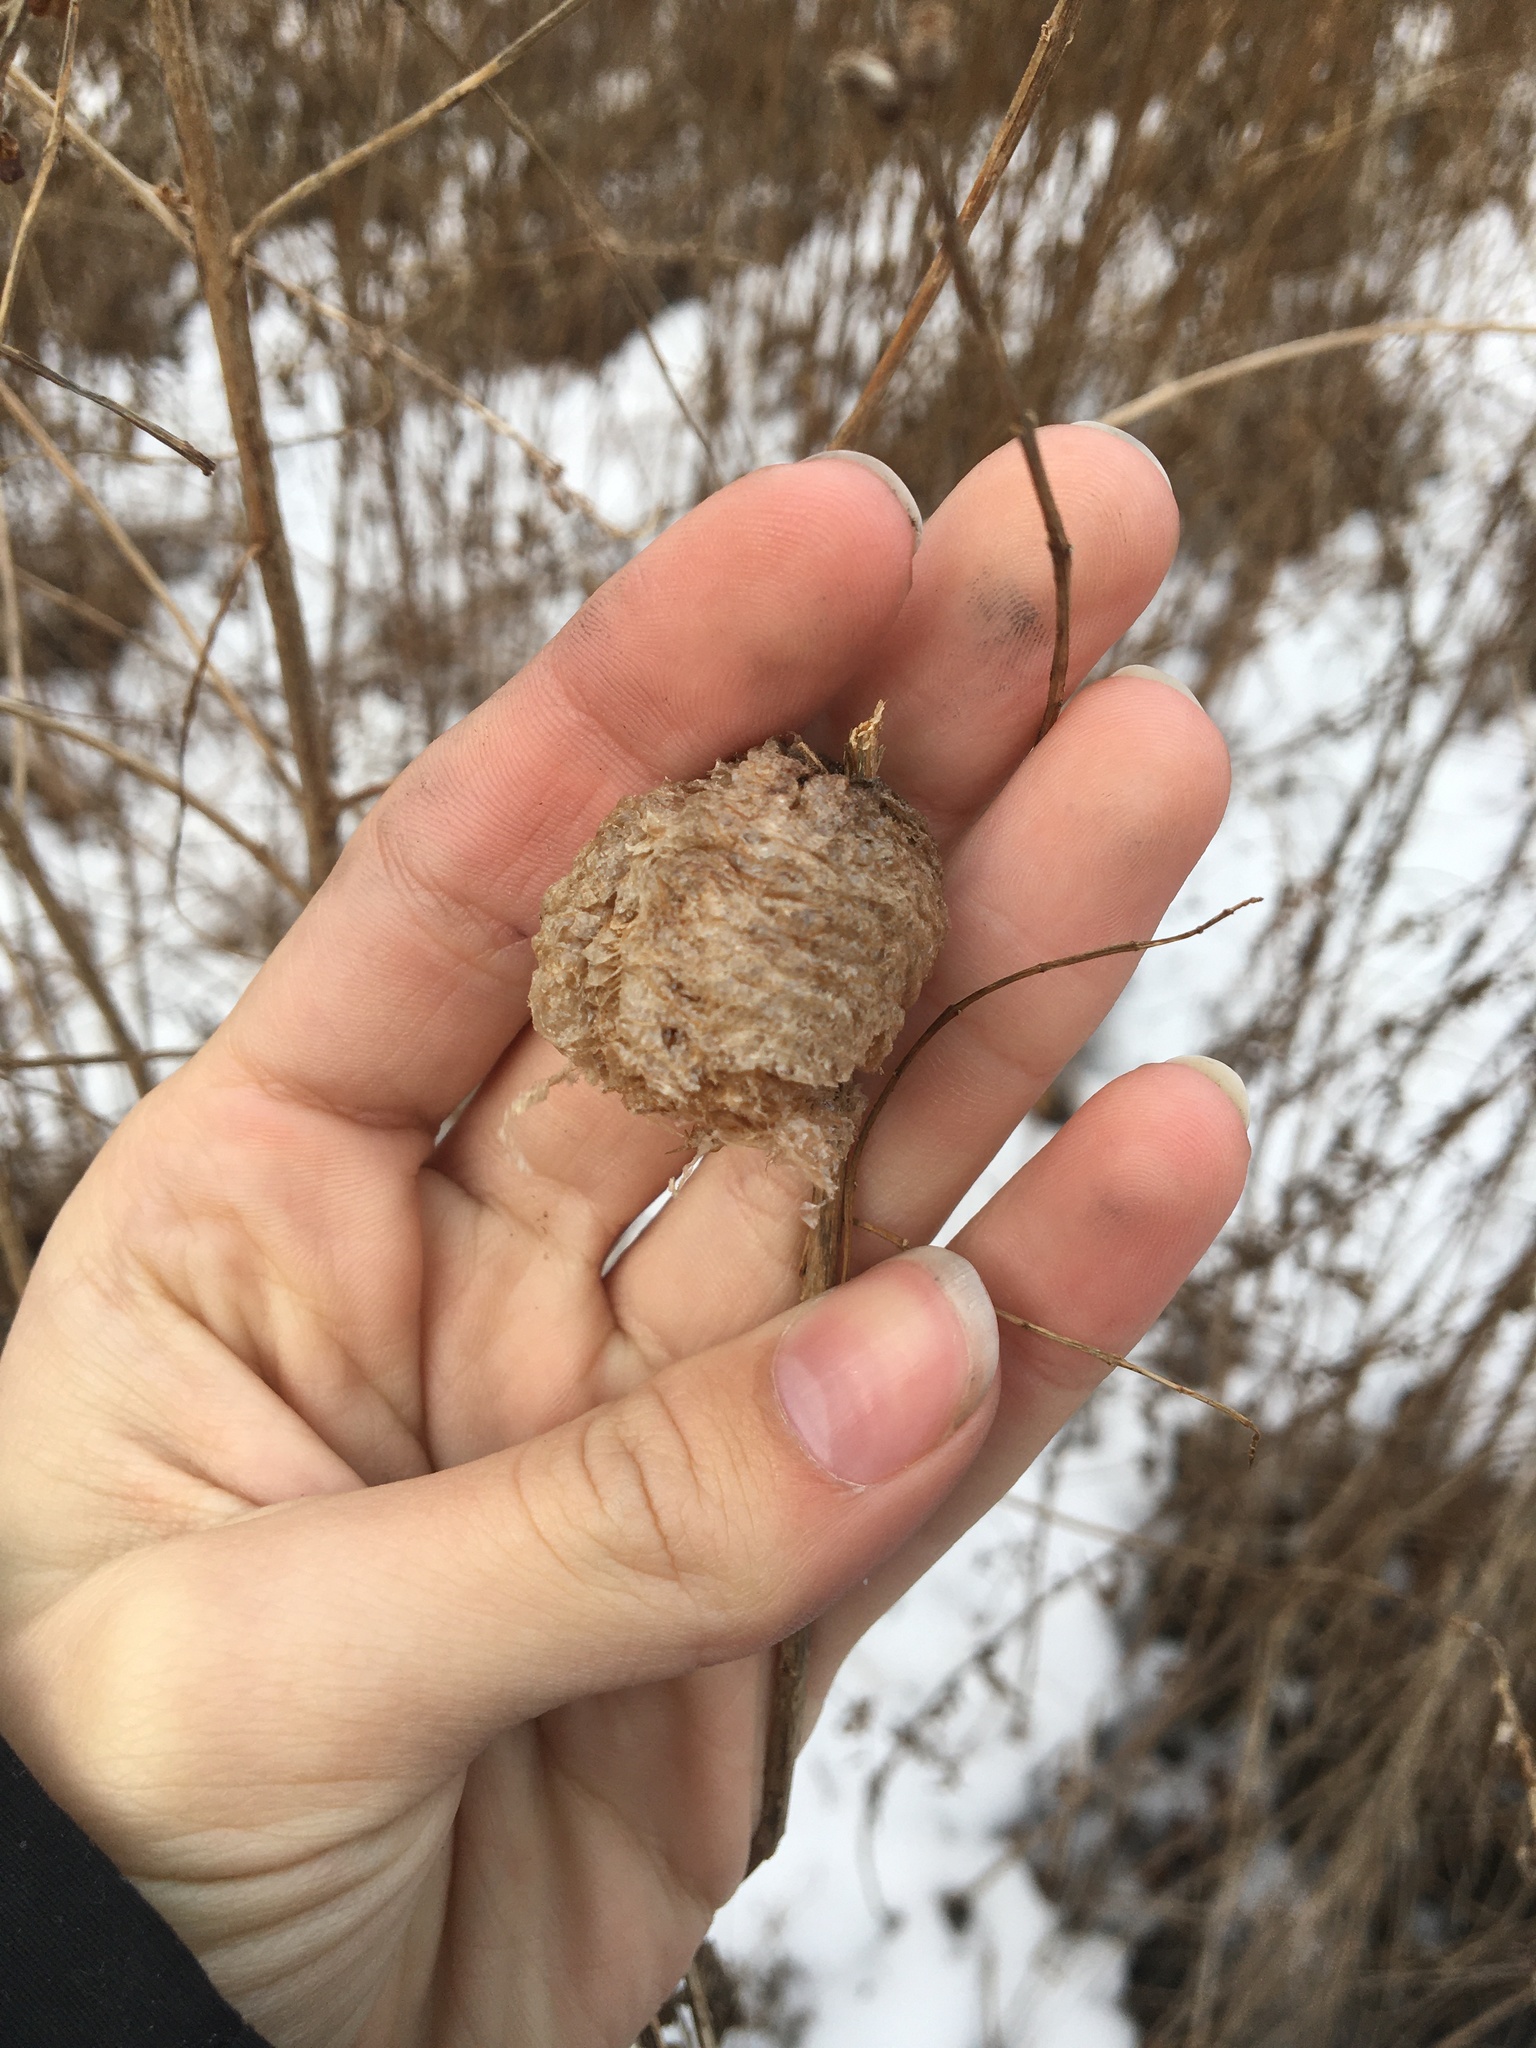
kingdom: Animalia
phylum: Arthropoda
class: Insecta
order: Mantodea
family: Mantidae
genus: Tenodera
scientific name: Tenodera sinensis
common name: Chinese mantis
